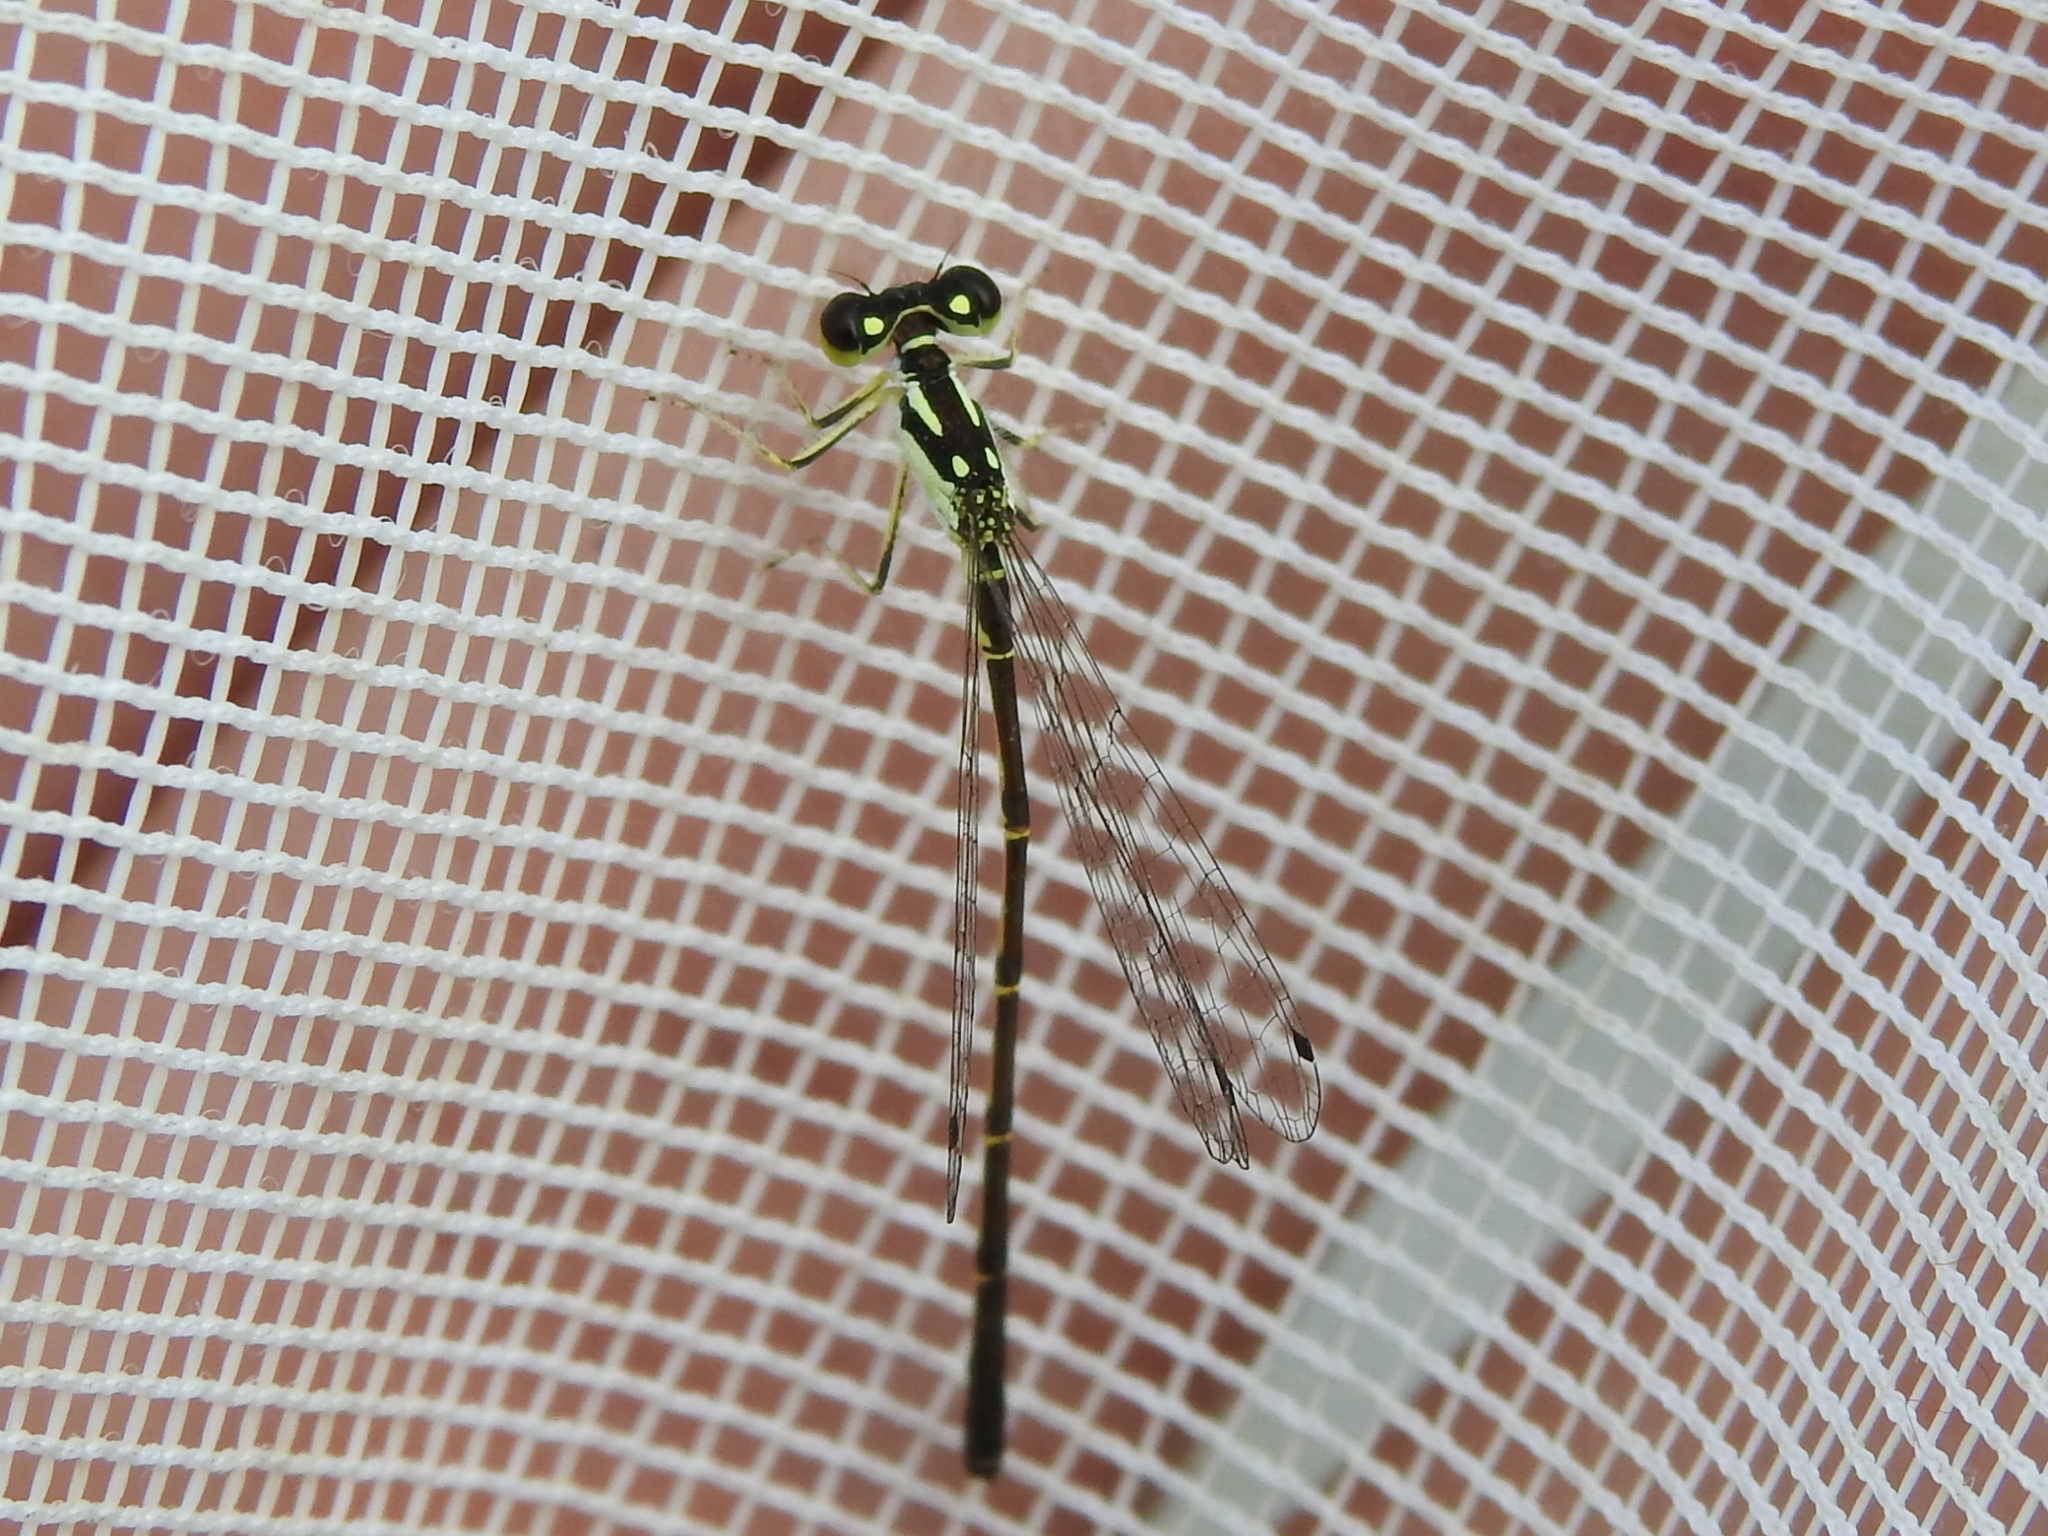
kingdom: Animalia
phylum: Arthropoda
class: Insecta
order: Odonata
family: Coenagrionidae
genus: Ischnura
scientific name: Ischnura posita
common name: Fragile forktail
